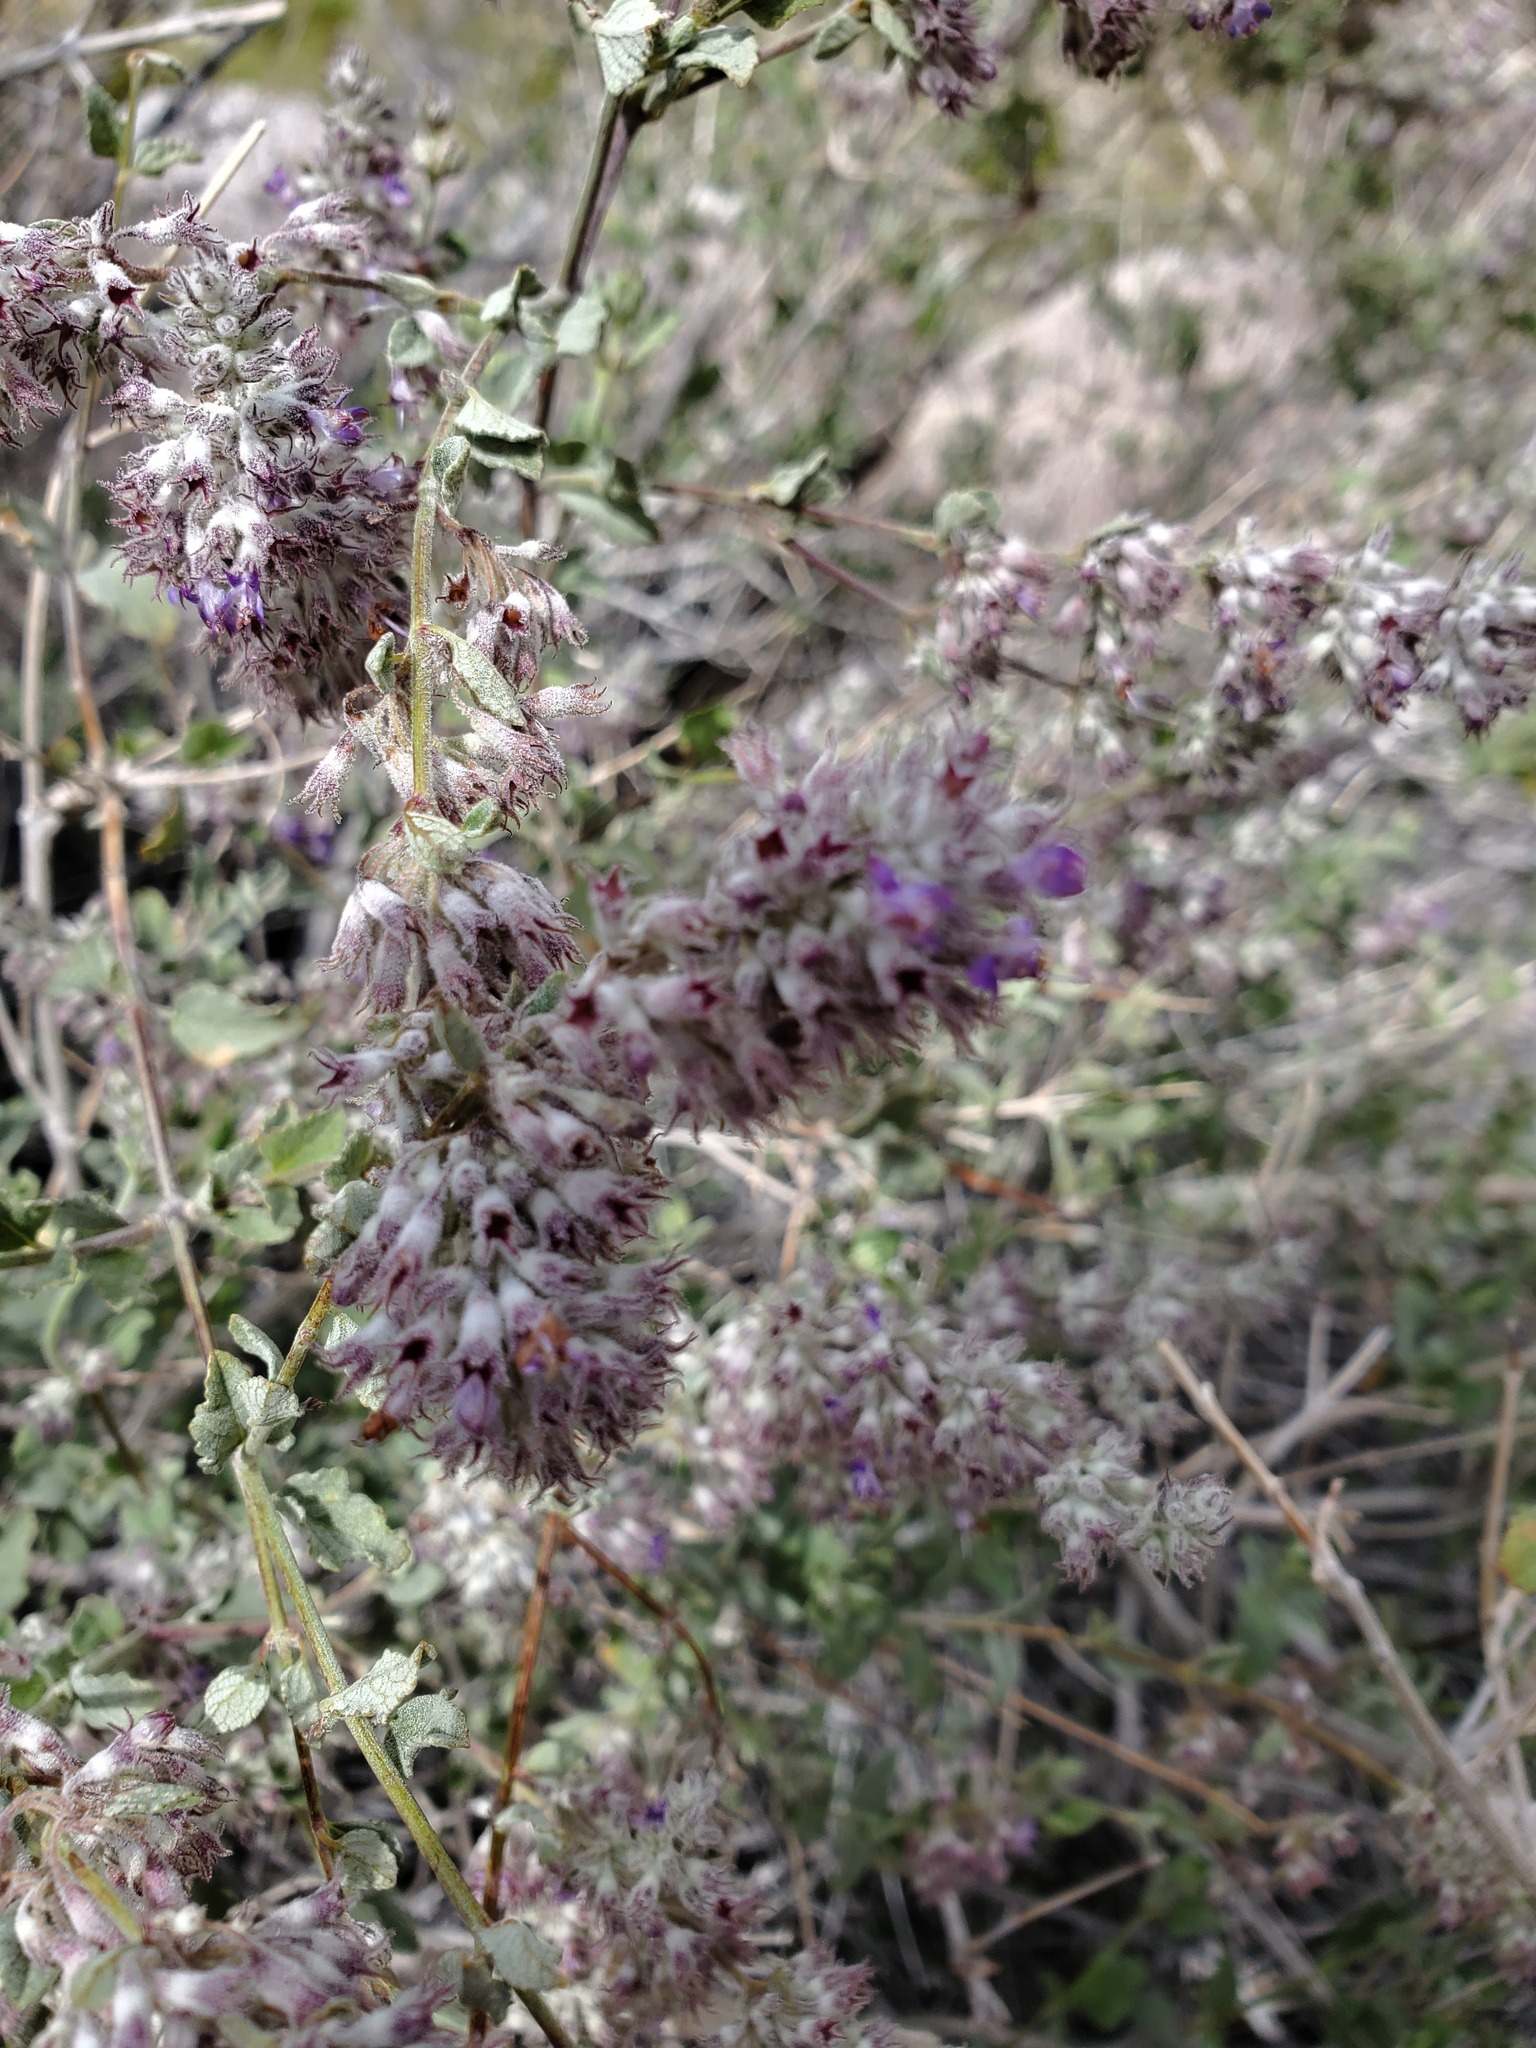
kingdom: Plantae
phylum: Tracheophyta
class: Magnoliopsida
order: Lamiales
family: Lamiaceae
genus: Condea
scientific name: Condea emoryi
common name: Chia
